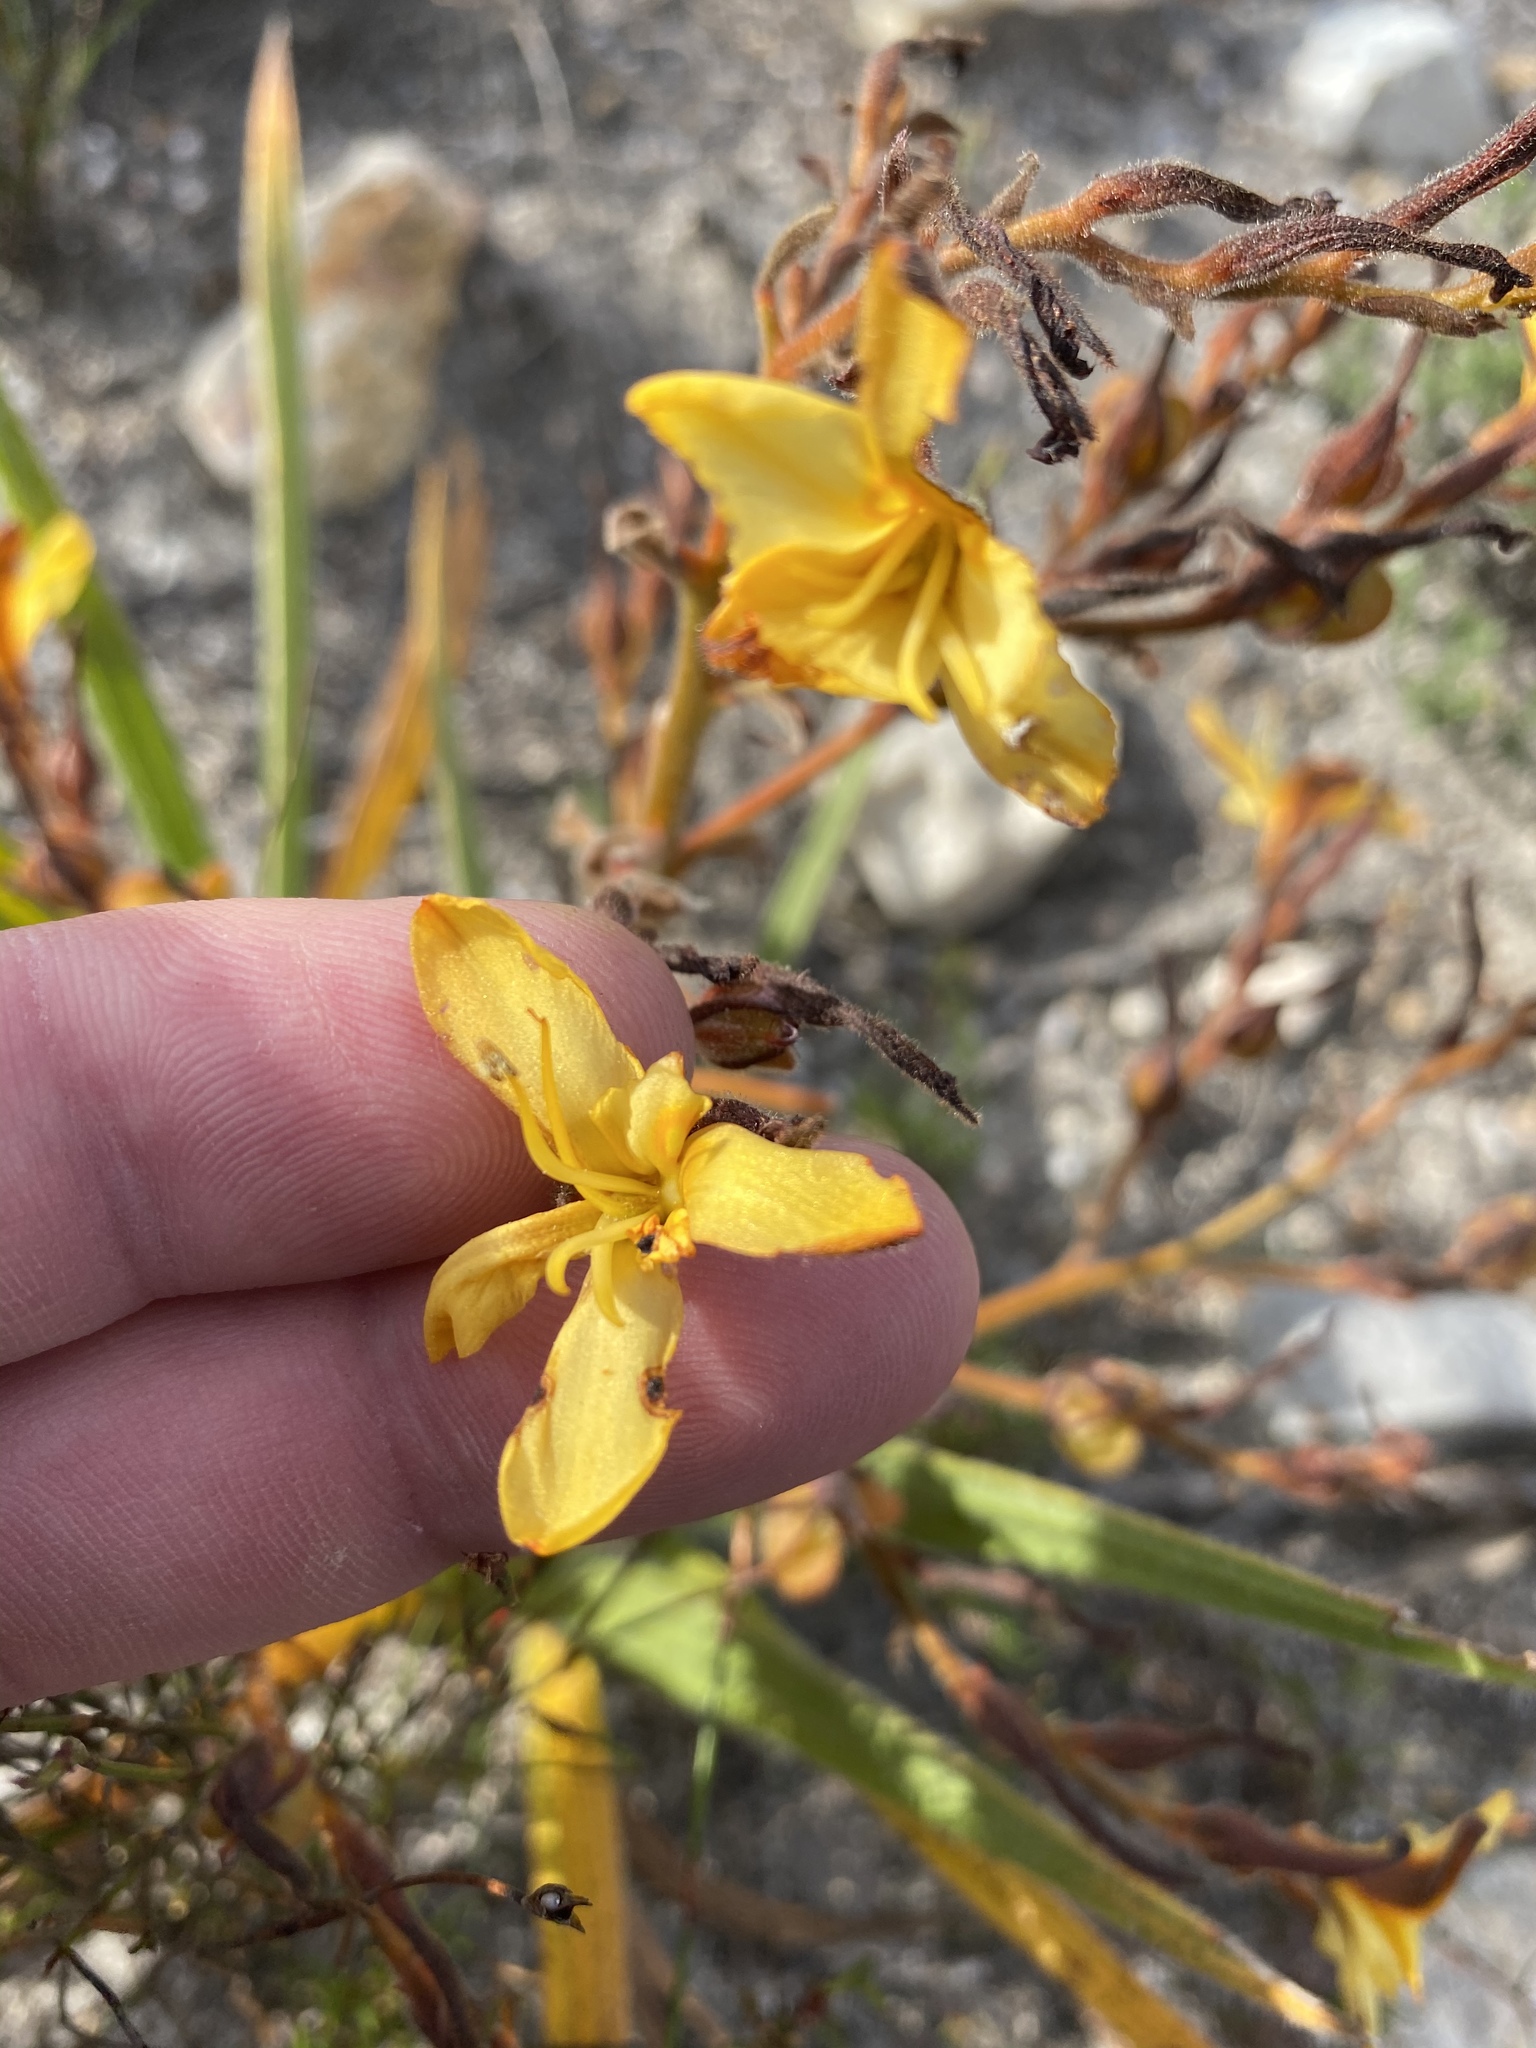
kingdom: Plantae
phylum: Tracheophyta
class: Liliopsida
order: Commelinales
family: Haemodoraceae
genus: Wachendorfia
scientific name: Wachendorfia paniculata
